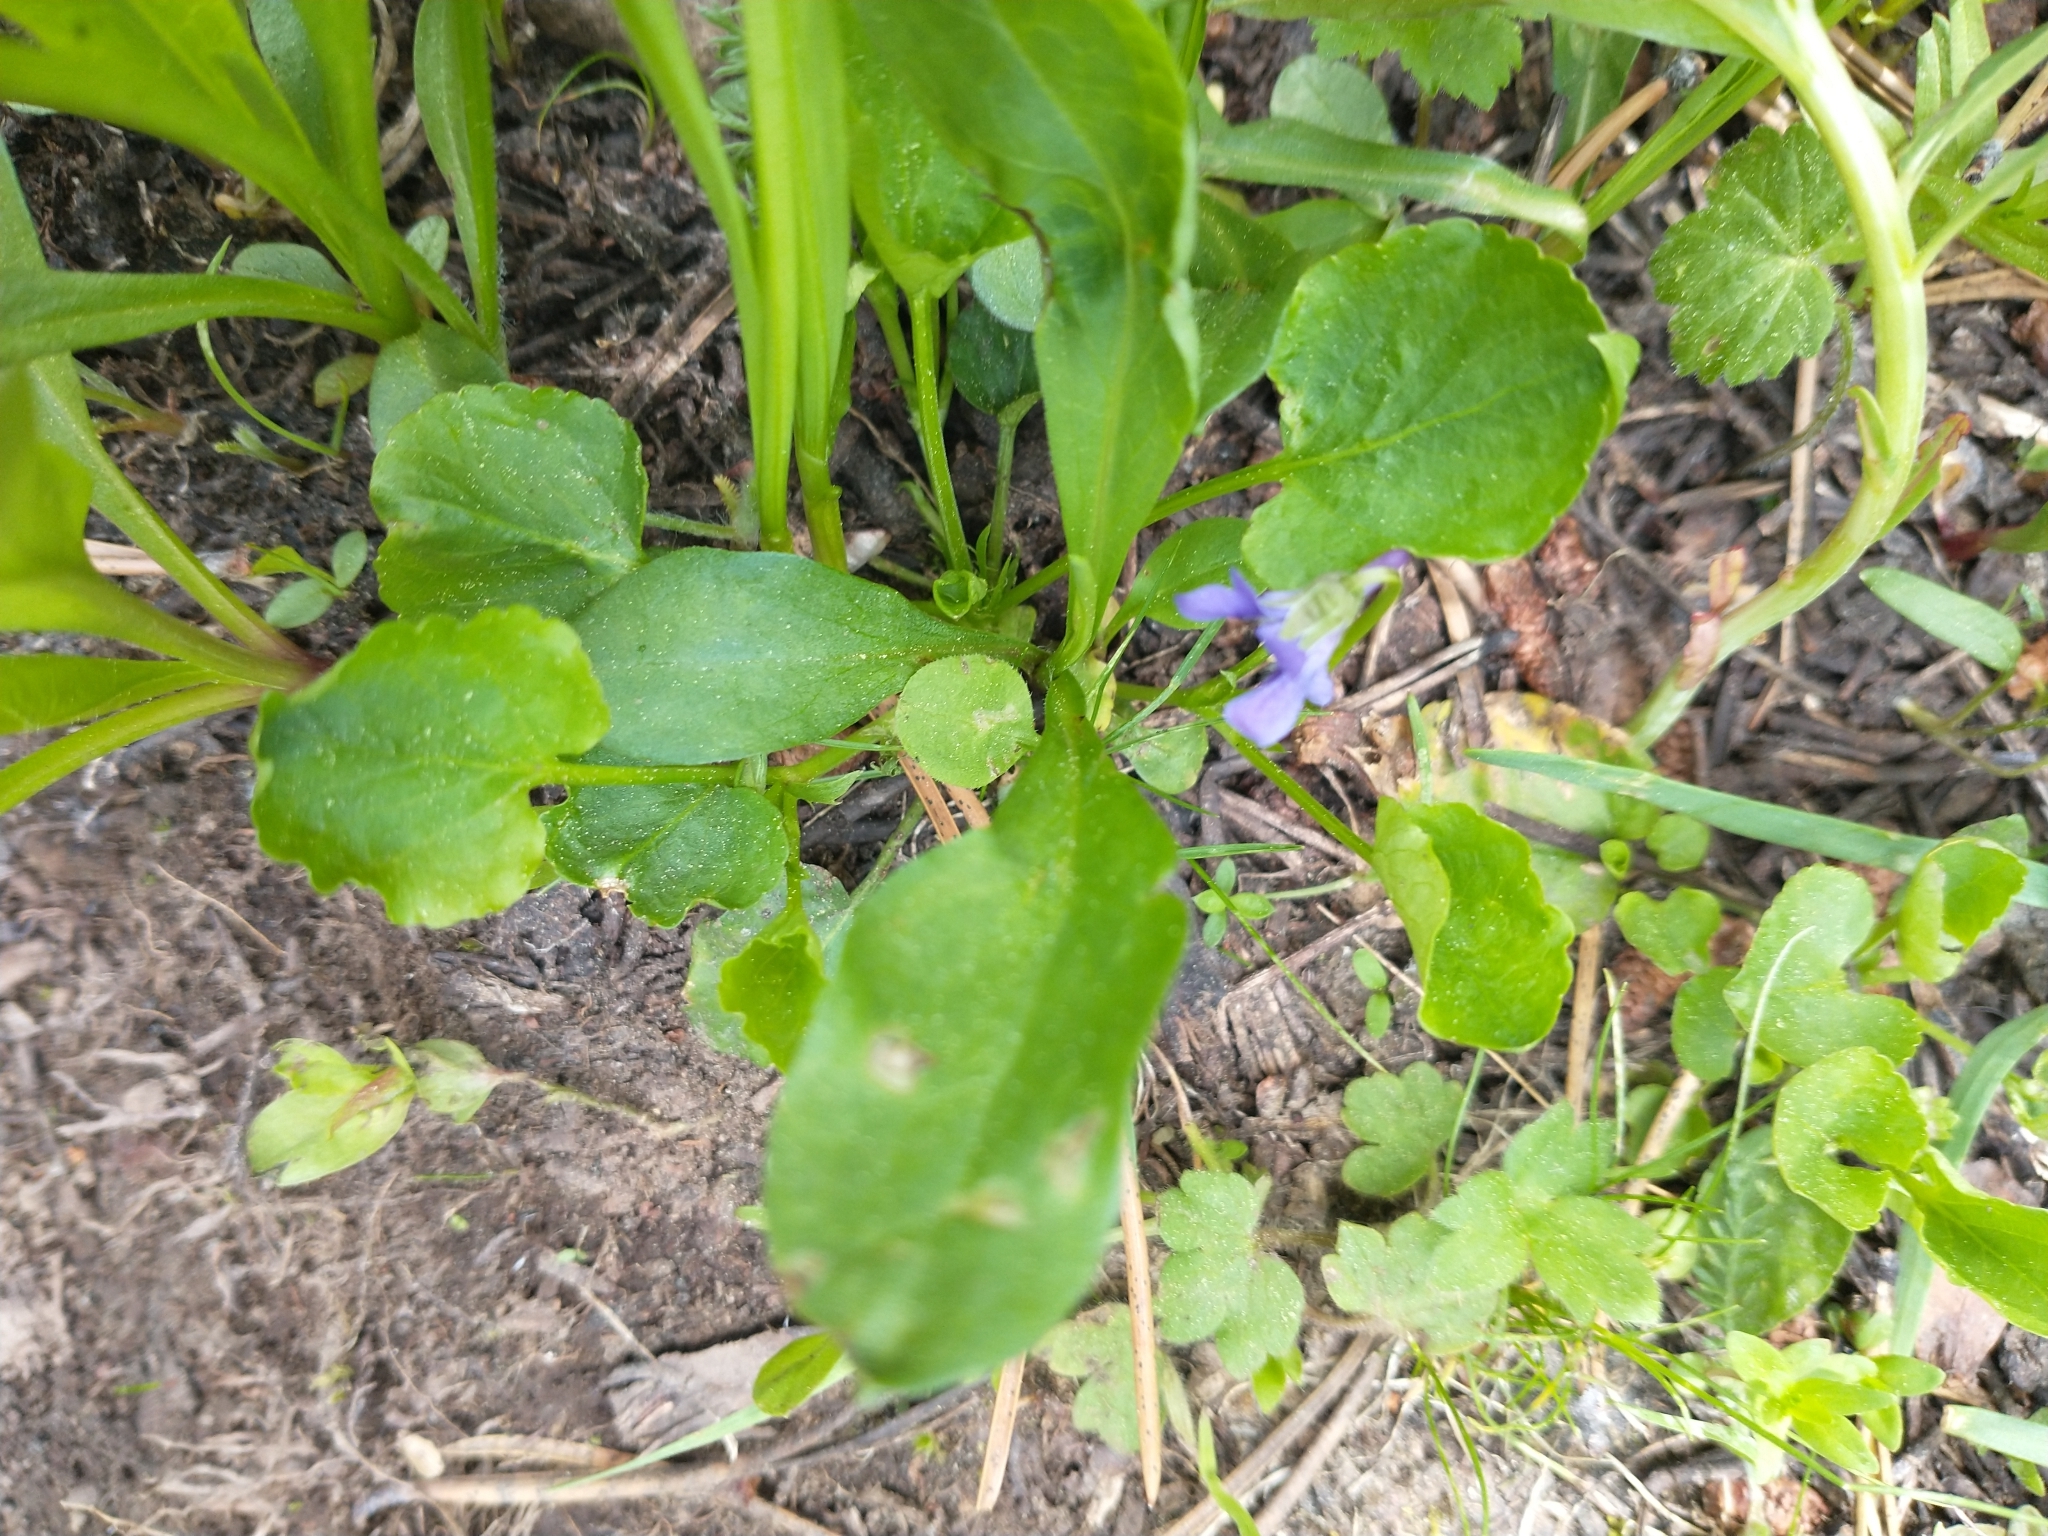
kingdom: Plantae
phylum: Tracheophyta
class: Magnoliopsida
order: Malpighiales
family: Violaceae
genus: Viola
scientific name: Viola adunca
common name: Sand violet
